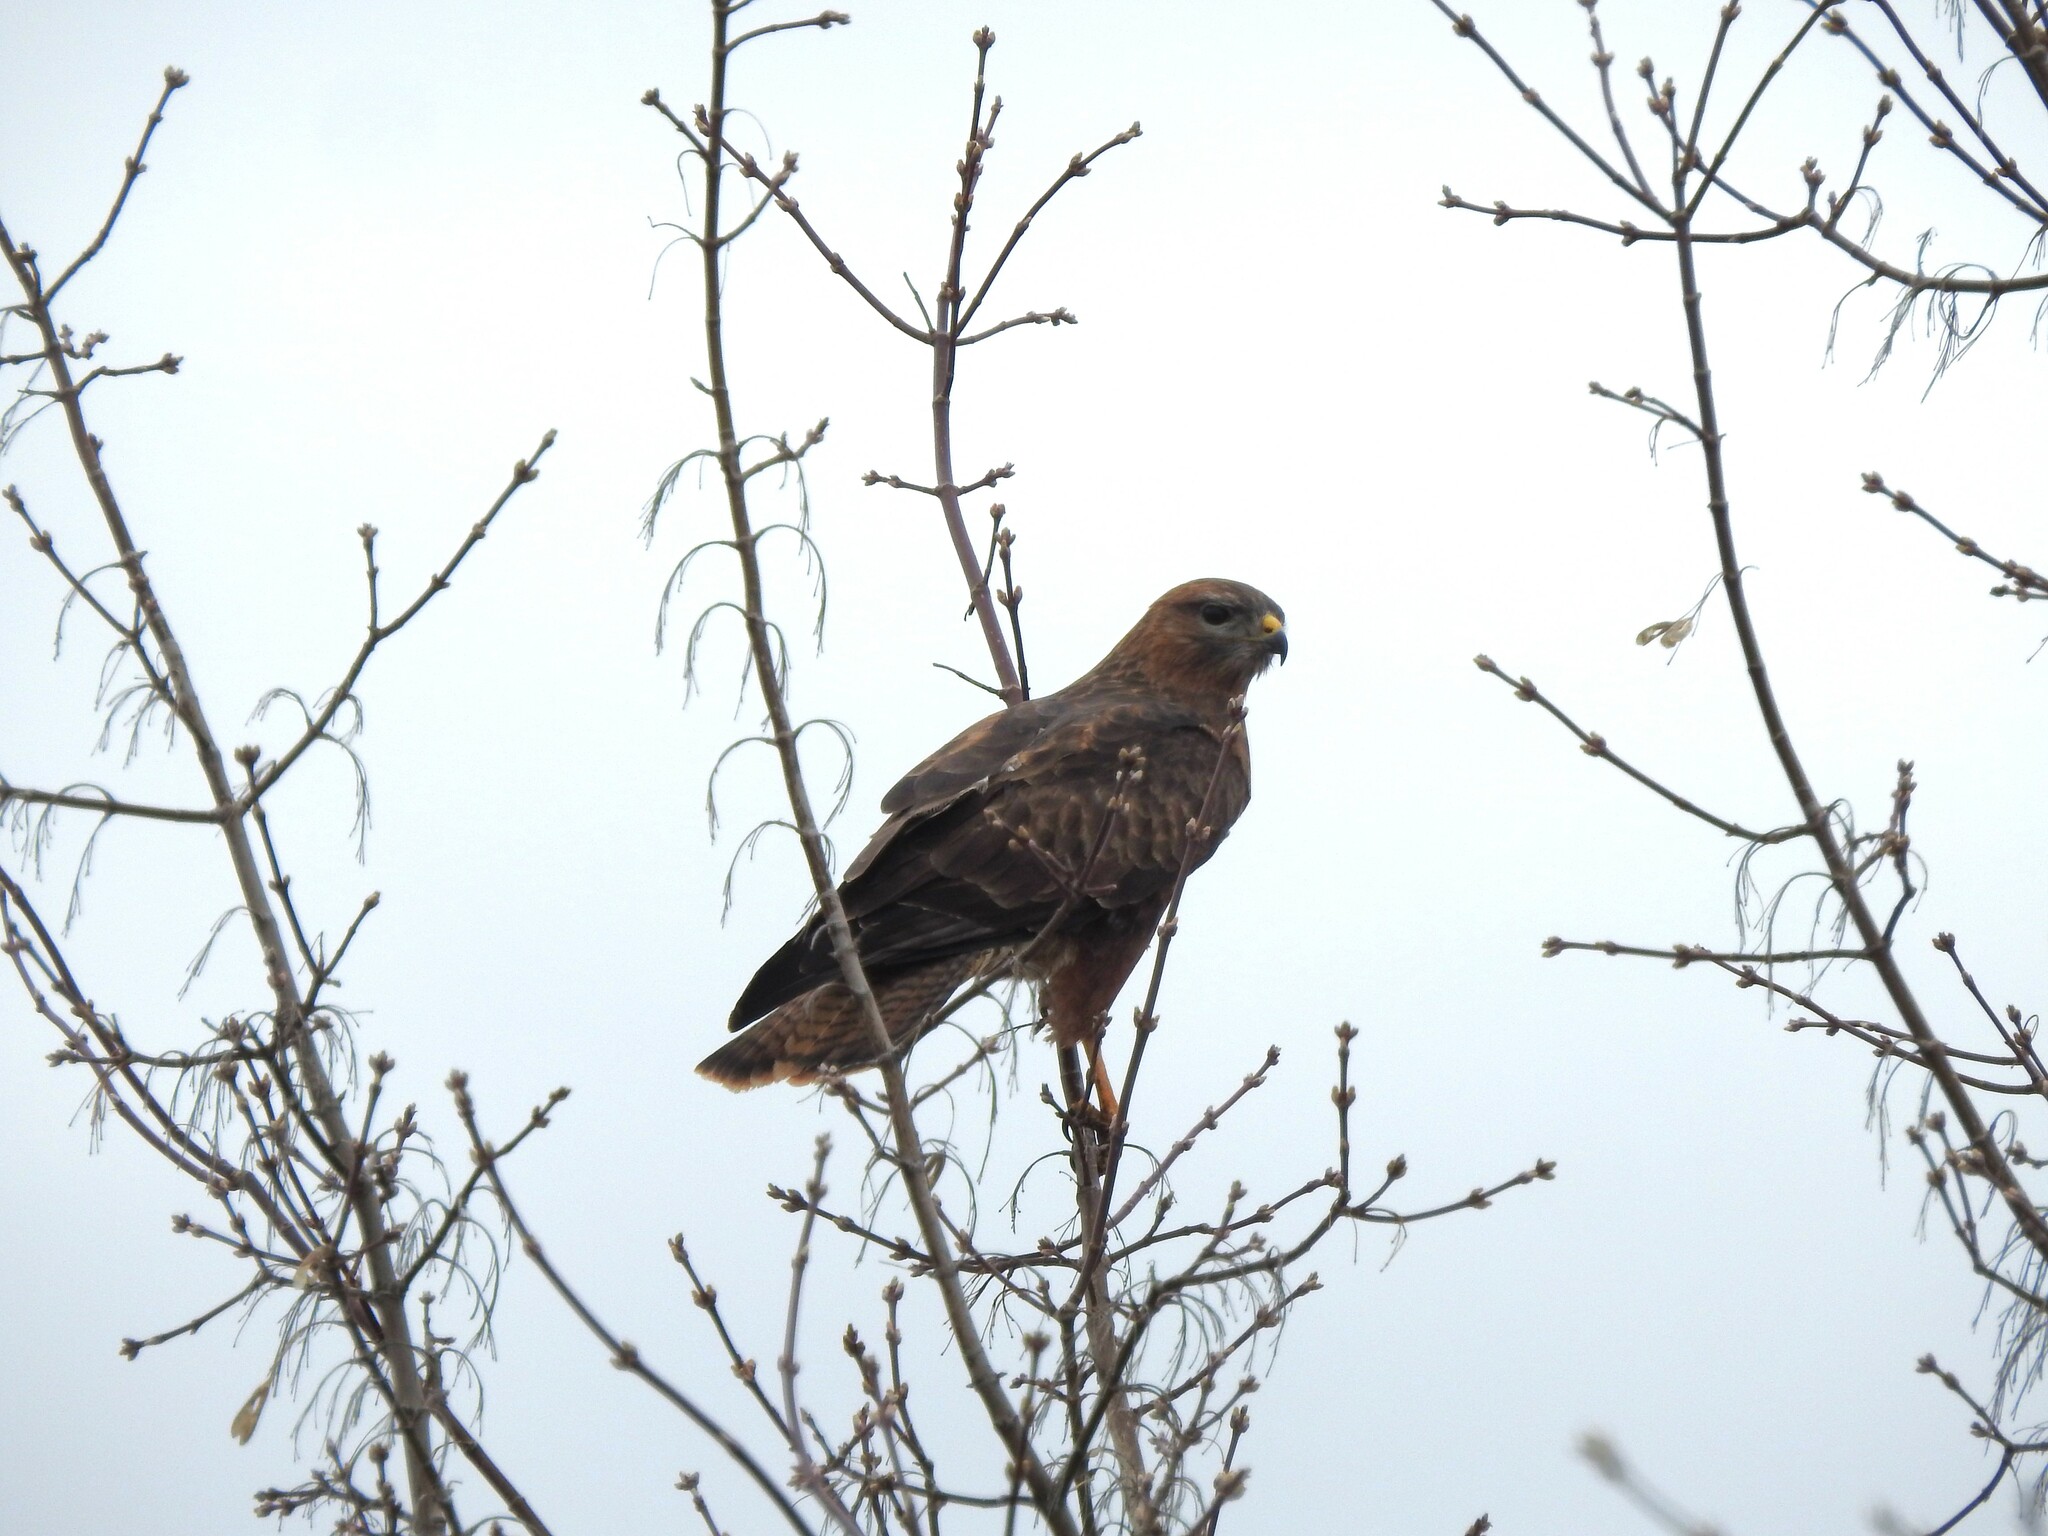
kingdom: Animalia
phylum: Chordata
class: Aves
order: Accipitriformes
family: Accipitridae
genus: Buteo
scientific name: Buteo buteo
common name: Common buzzard
